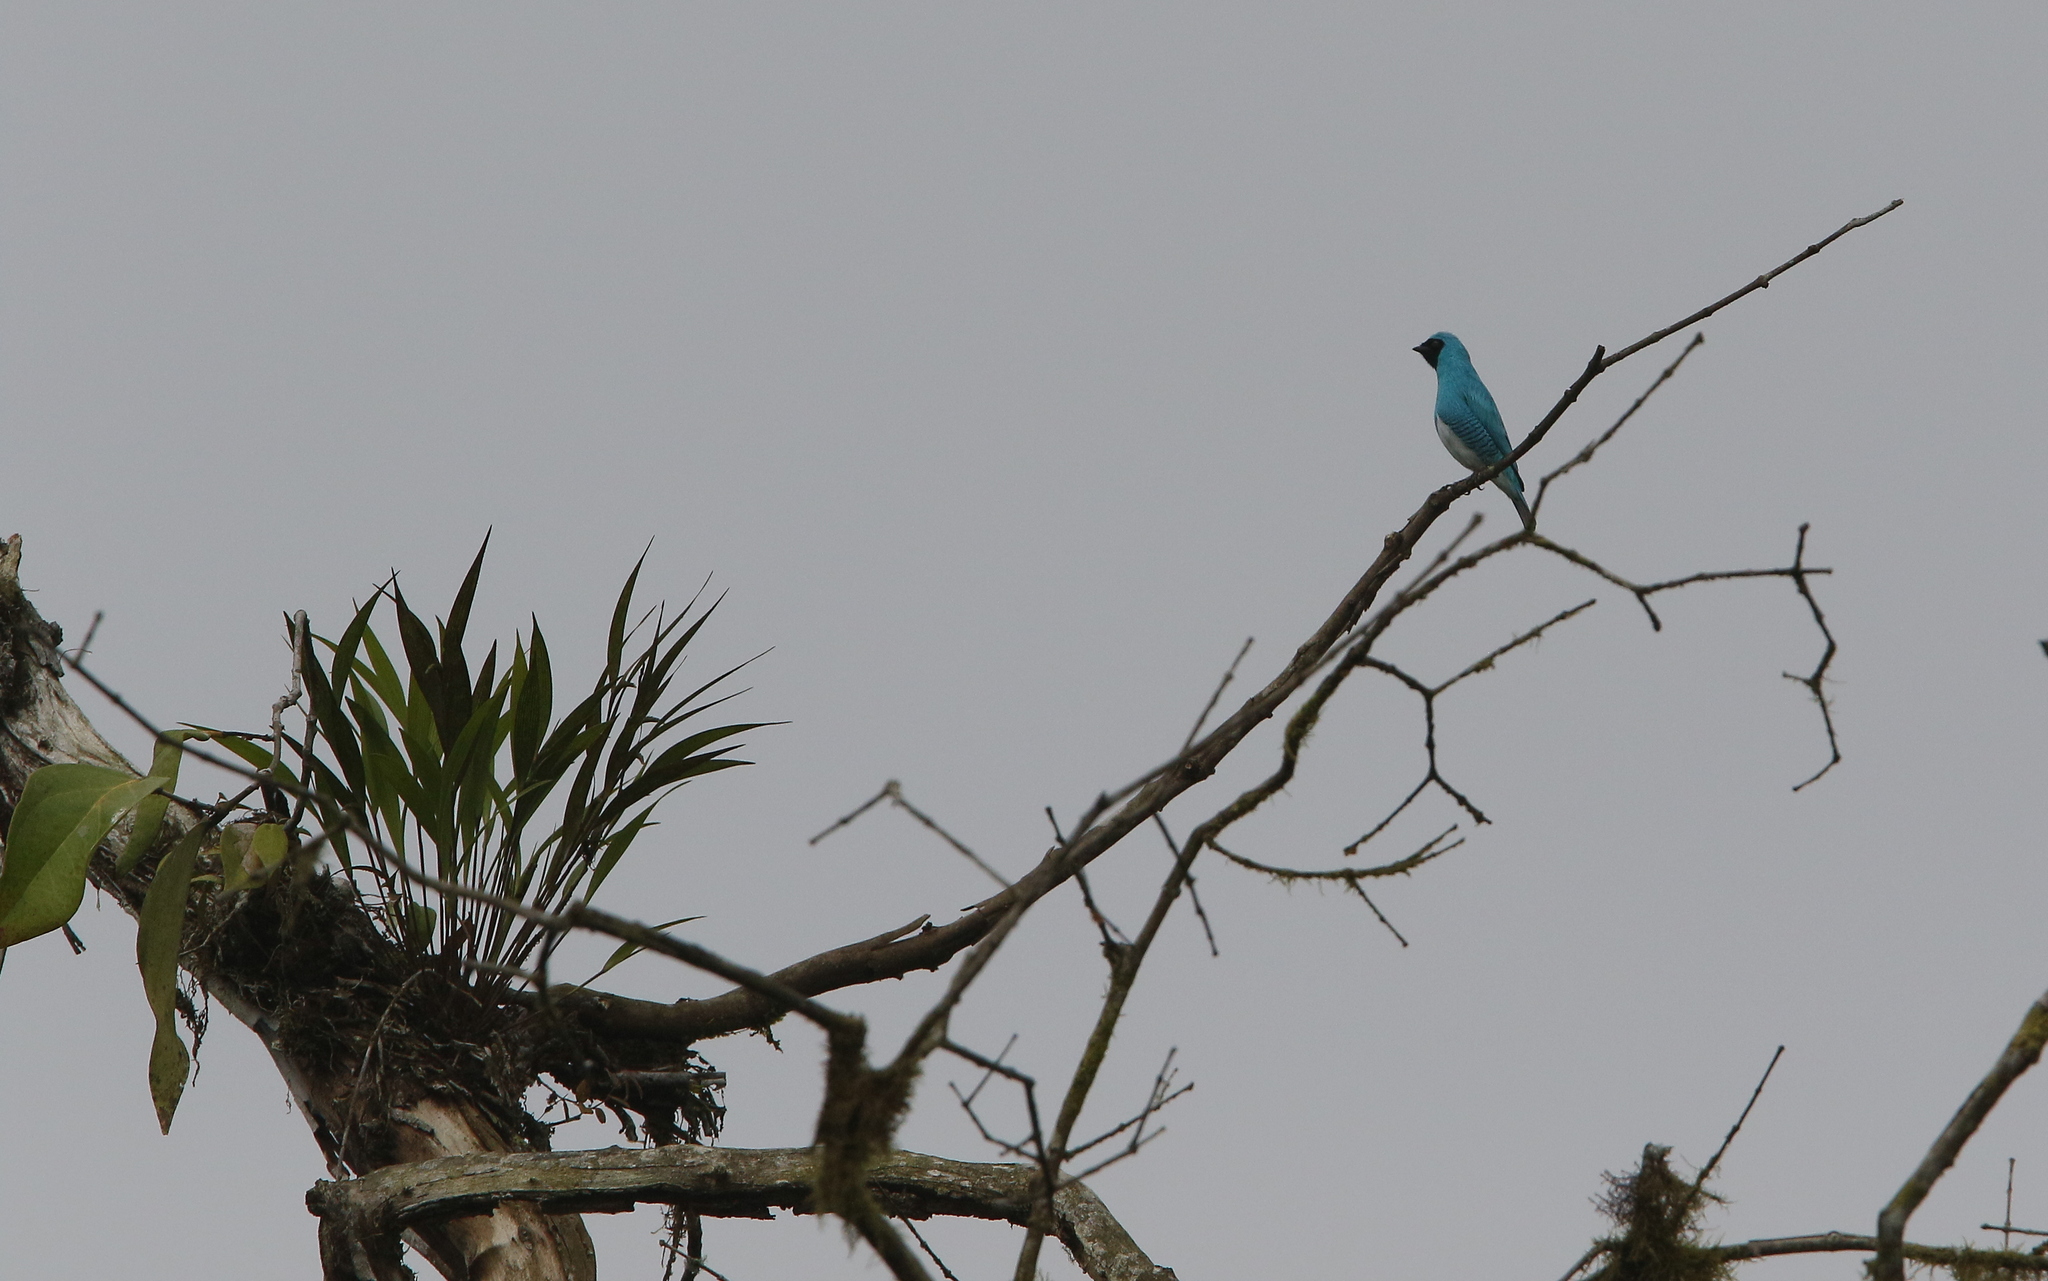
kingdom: Animalia
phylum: Chordata
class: Aves
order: Passeriformes
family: Thraupidae
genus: Tersina
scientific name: Tersina viridis
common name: Swallow tanager
